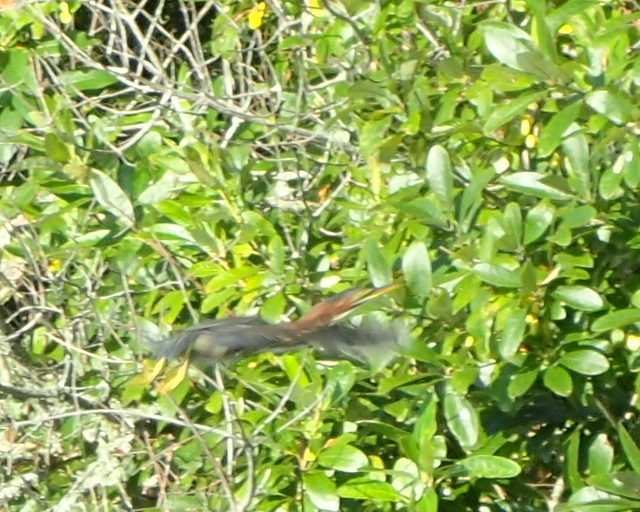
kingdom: Animalia
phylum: Chordata
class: Aves
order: Pelecaniformes
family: Ardeidae
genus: Butorides
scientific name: Butorides virescens
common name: Green heron
